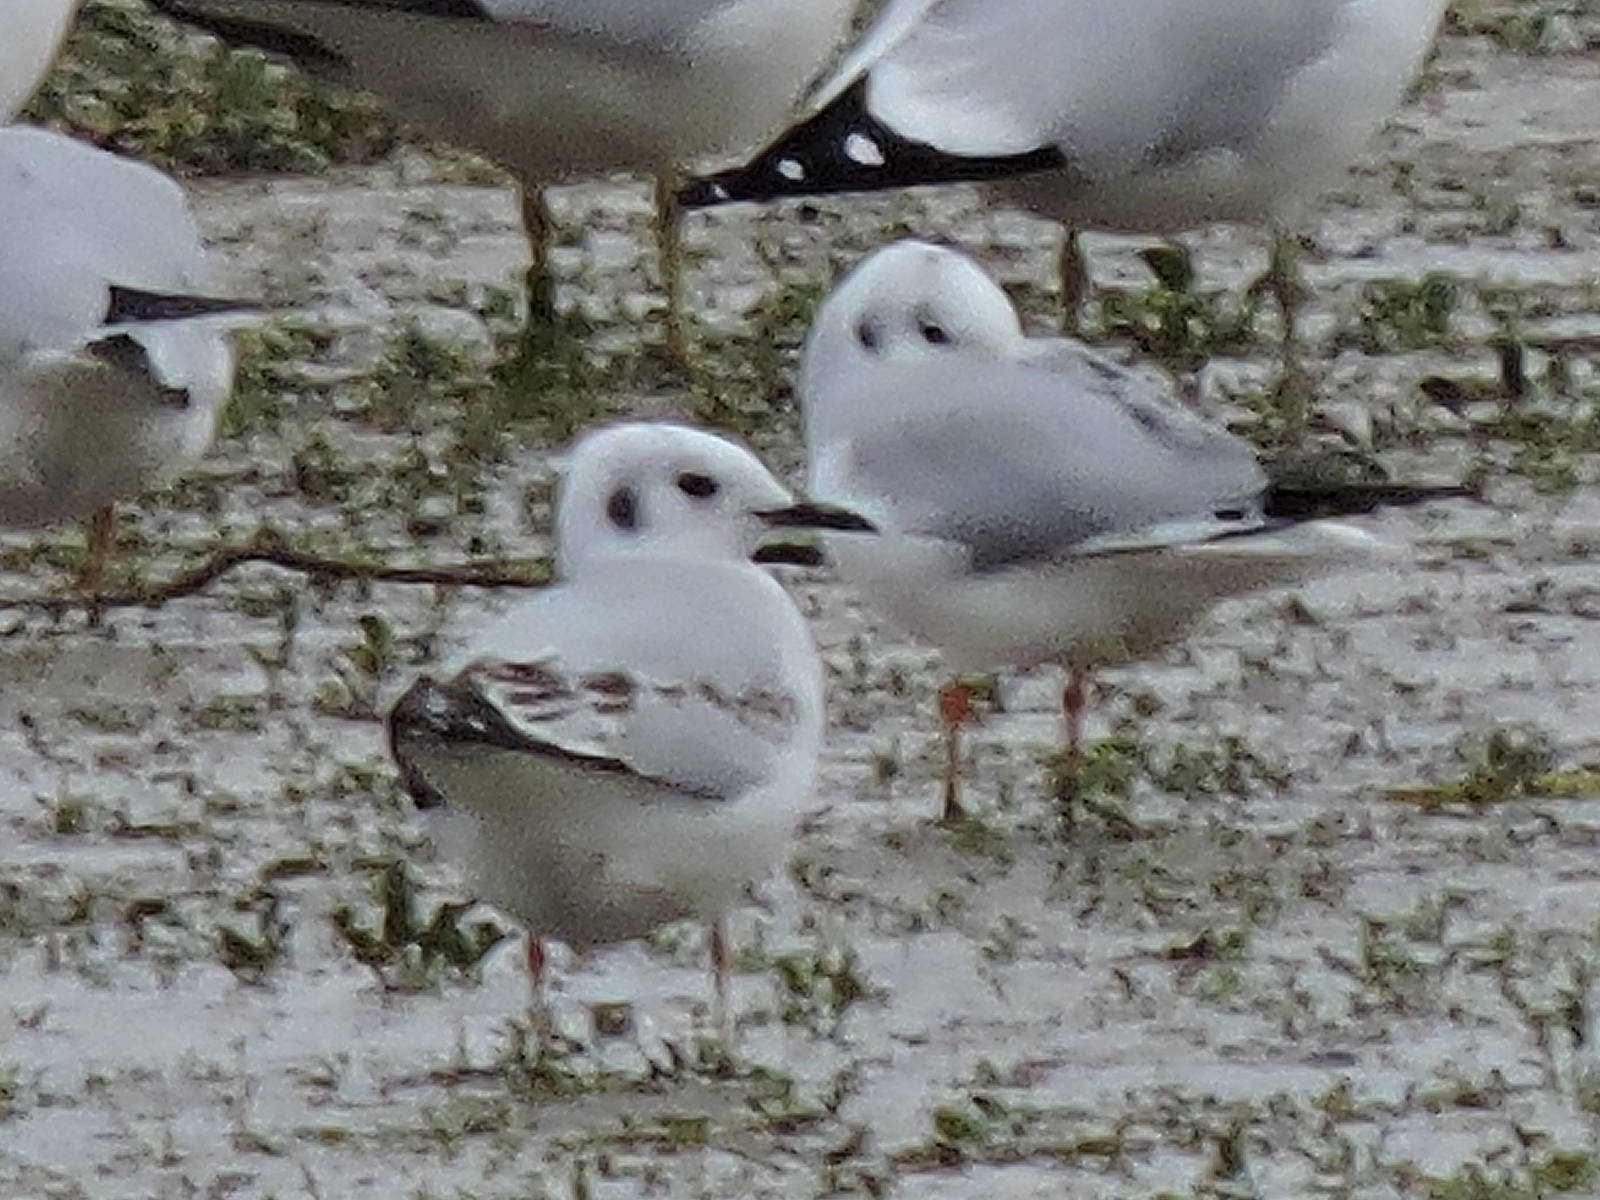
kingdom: Animalia
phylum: Chordata
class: Aves
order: Charadriiformes
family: Laridae
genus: Chroicocephalus
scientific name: Chroicocephalus philadelphia
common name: Bonaparte's gull
